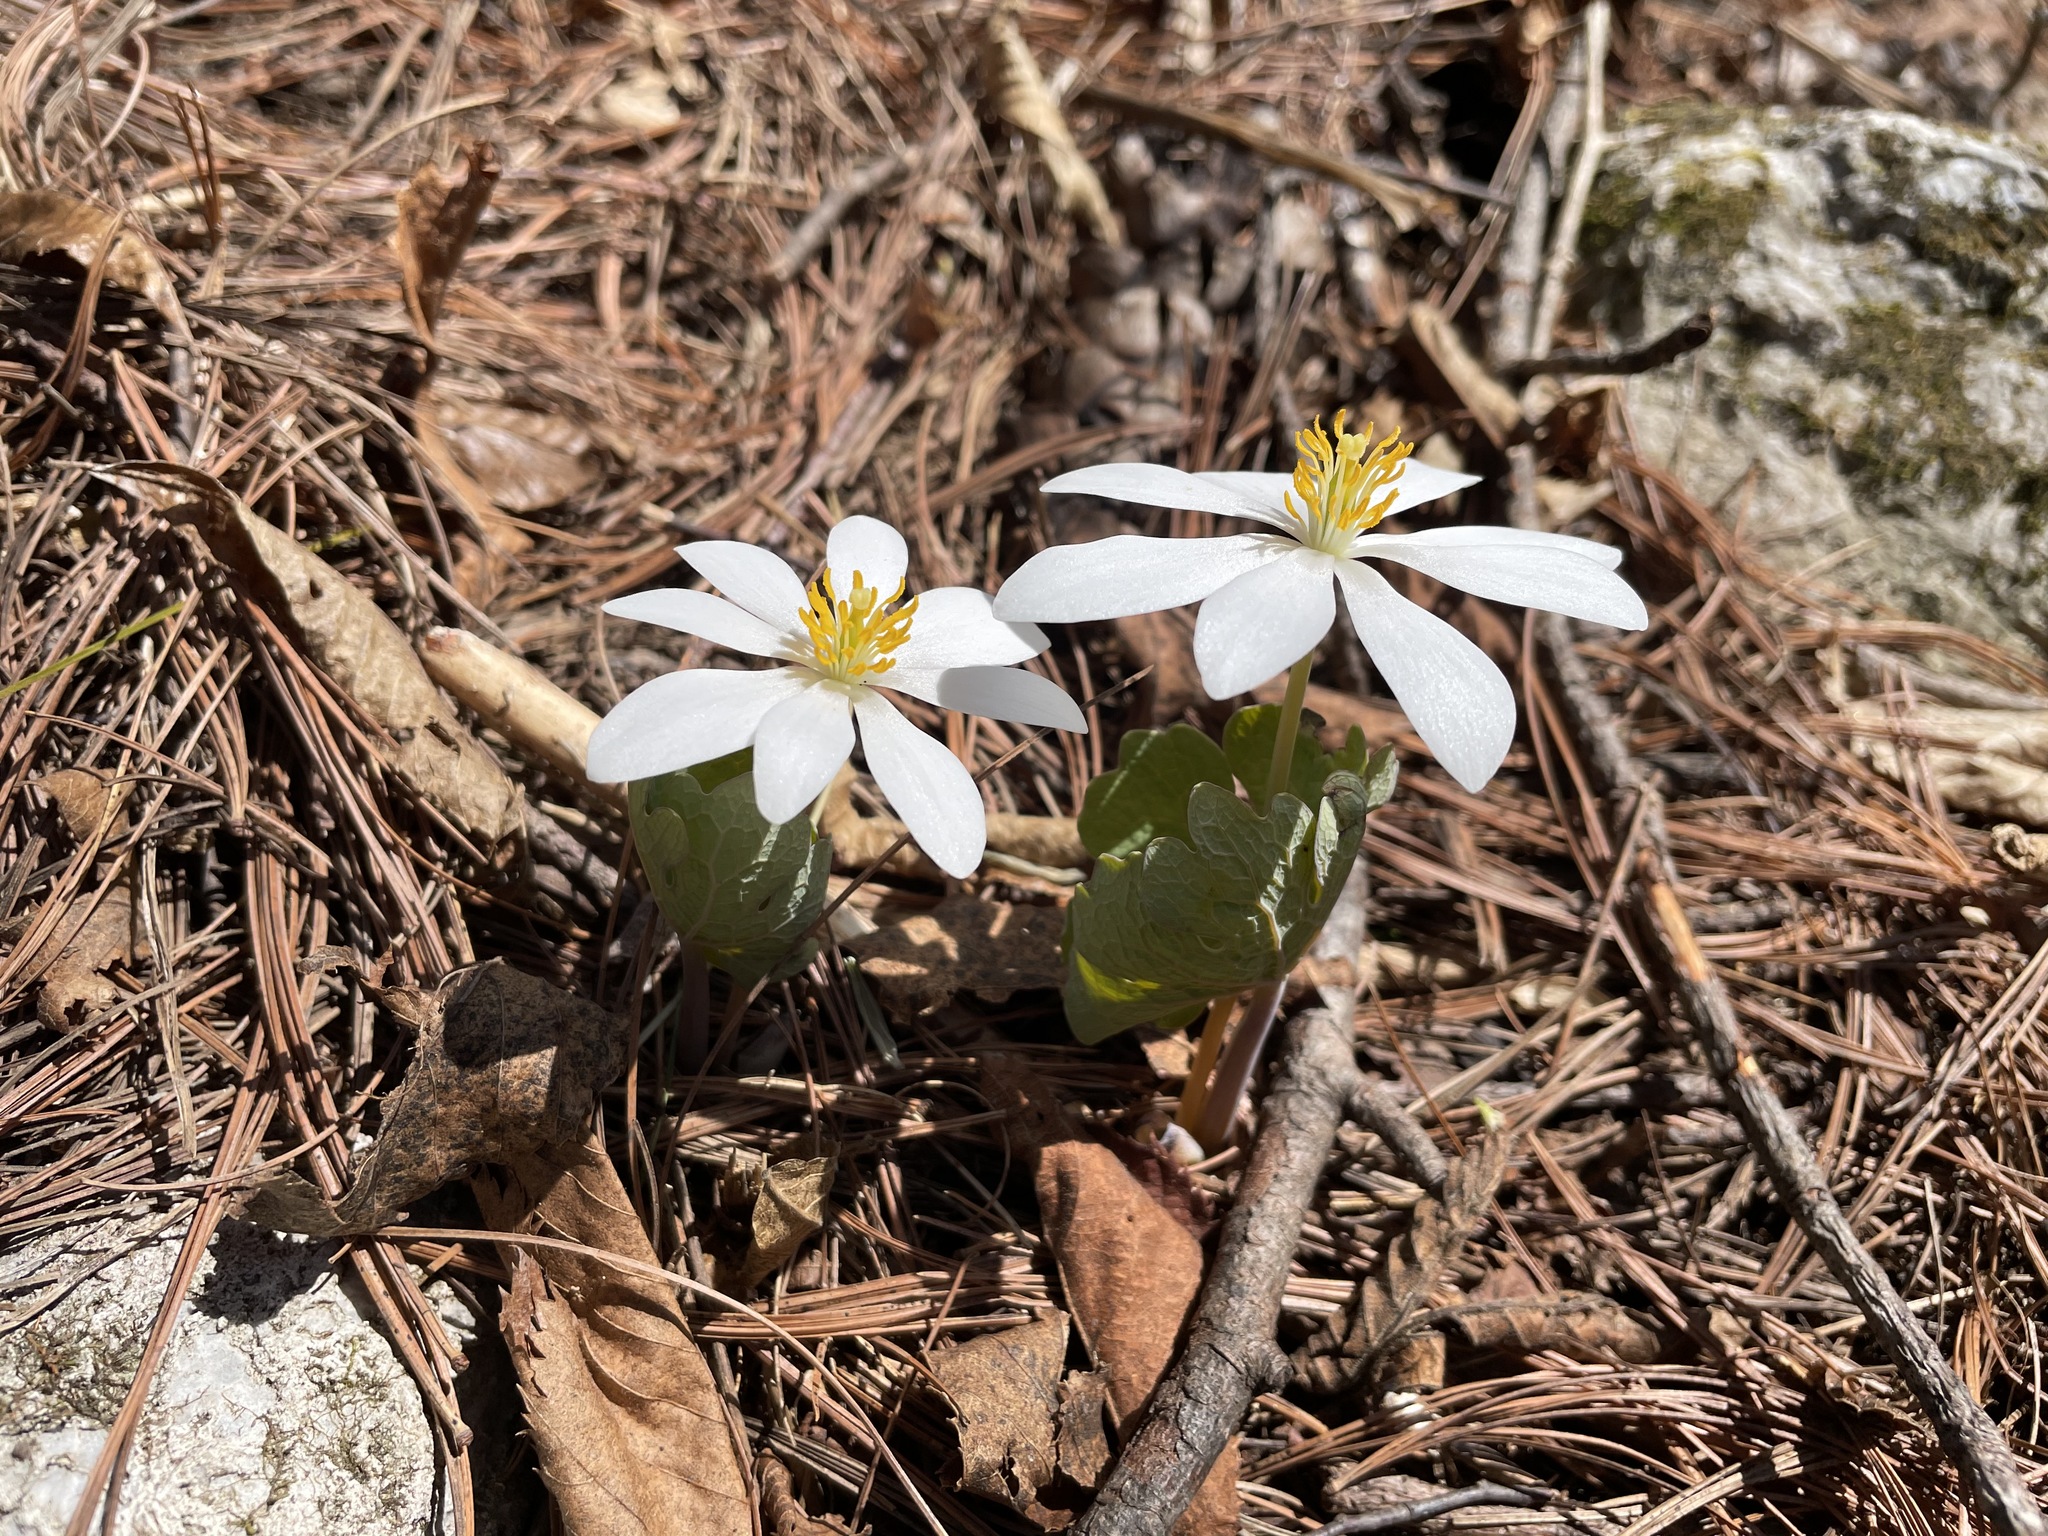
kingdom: Plantae
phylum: Tracheophyta
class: Magnoliopsida
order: Ranunculales
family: Papaveraceae
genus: Sanguinaria
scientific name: Sanguinaria canadensis
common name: Bloodroot
